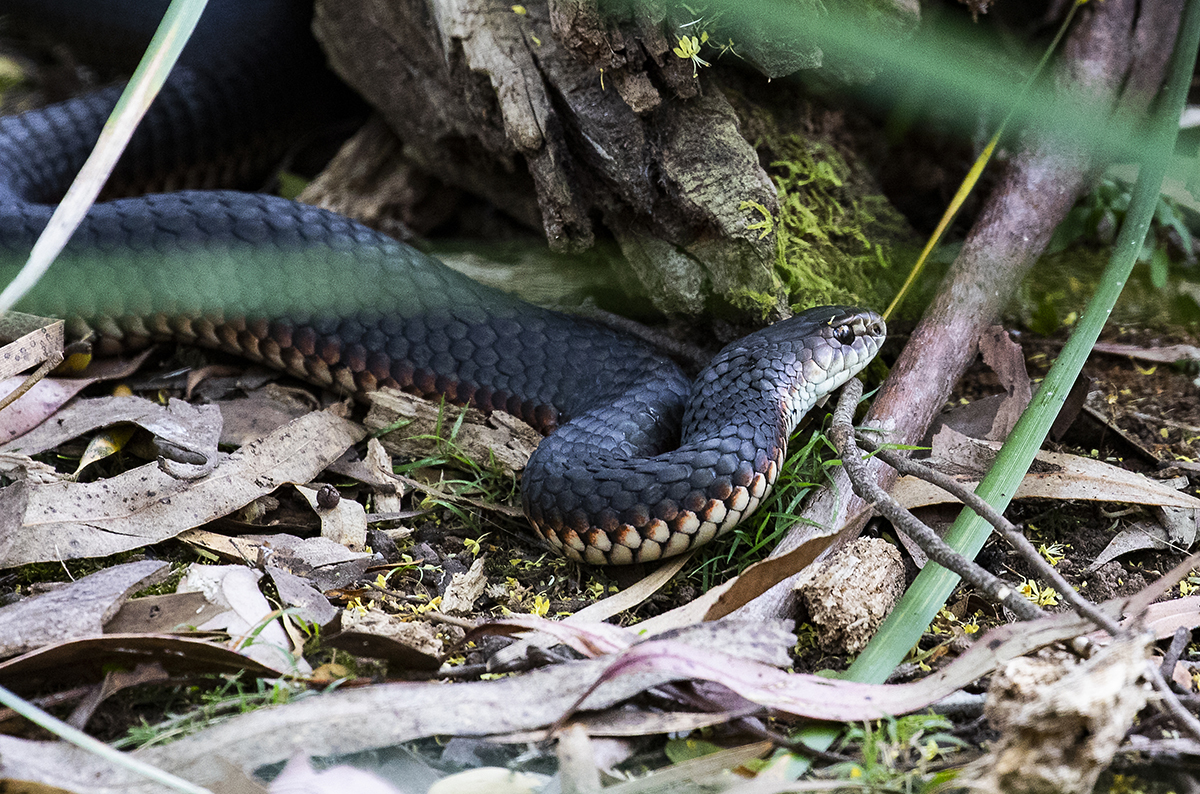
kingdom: Animalia
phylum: Chordata
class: Squamata
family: Elapidae
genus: Austrelaps
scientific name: Austrelaps superbus
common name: Copperhead snake
